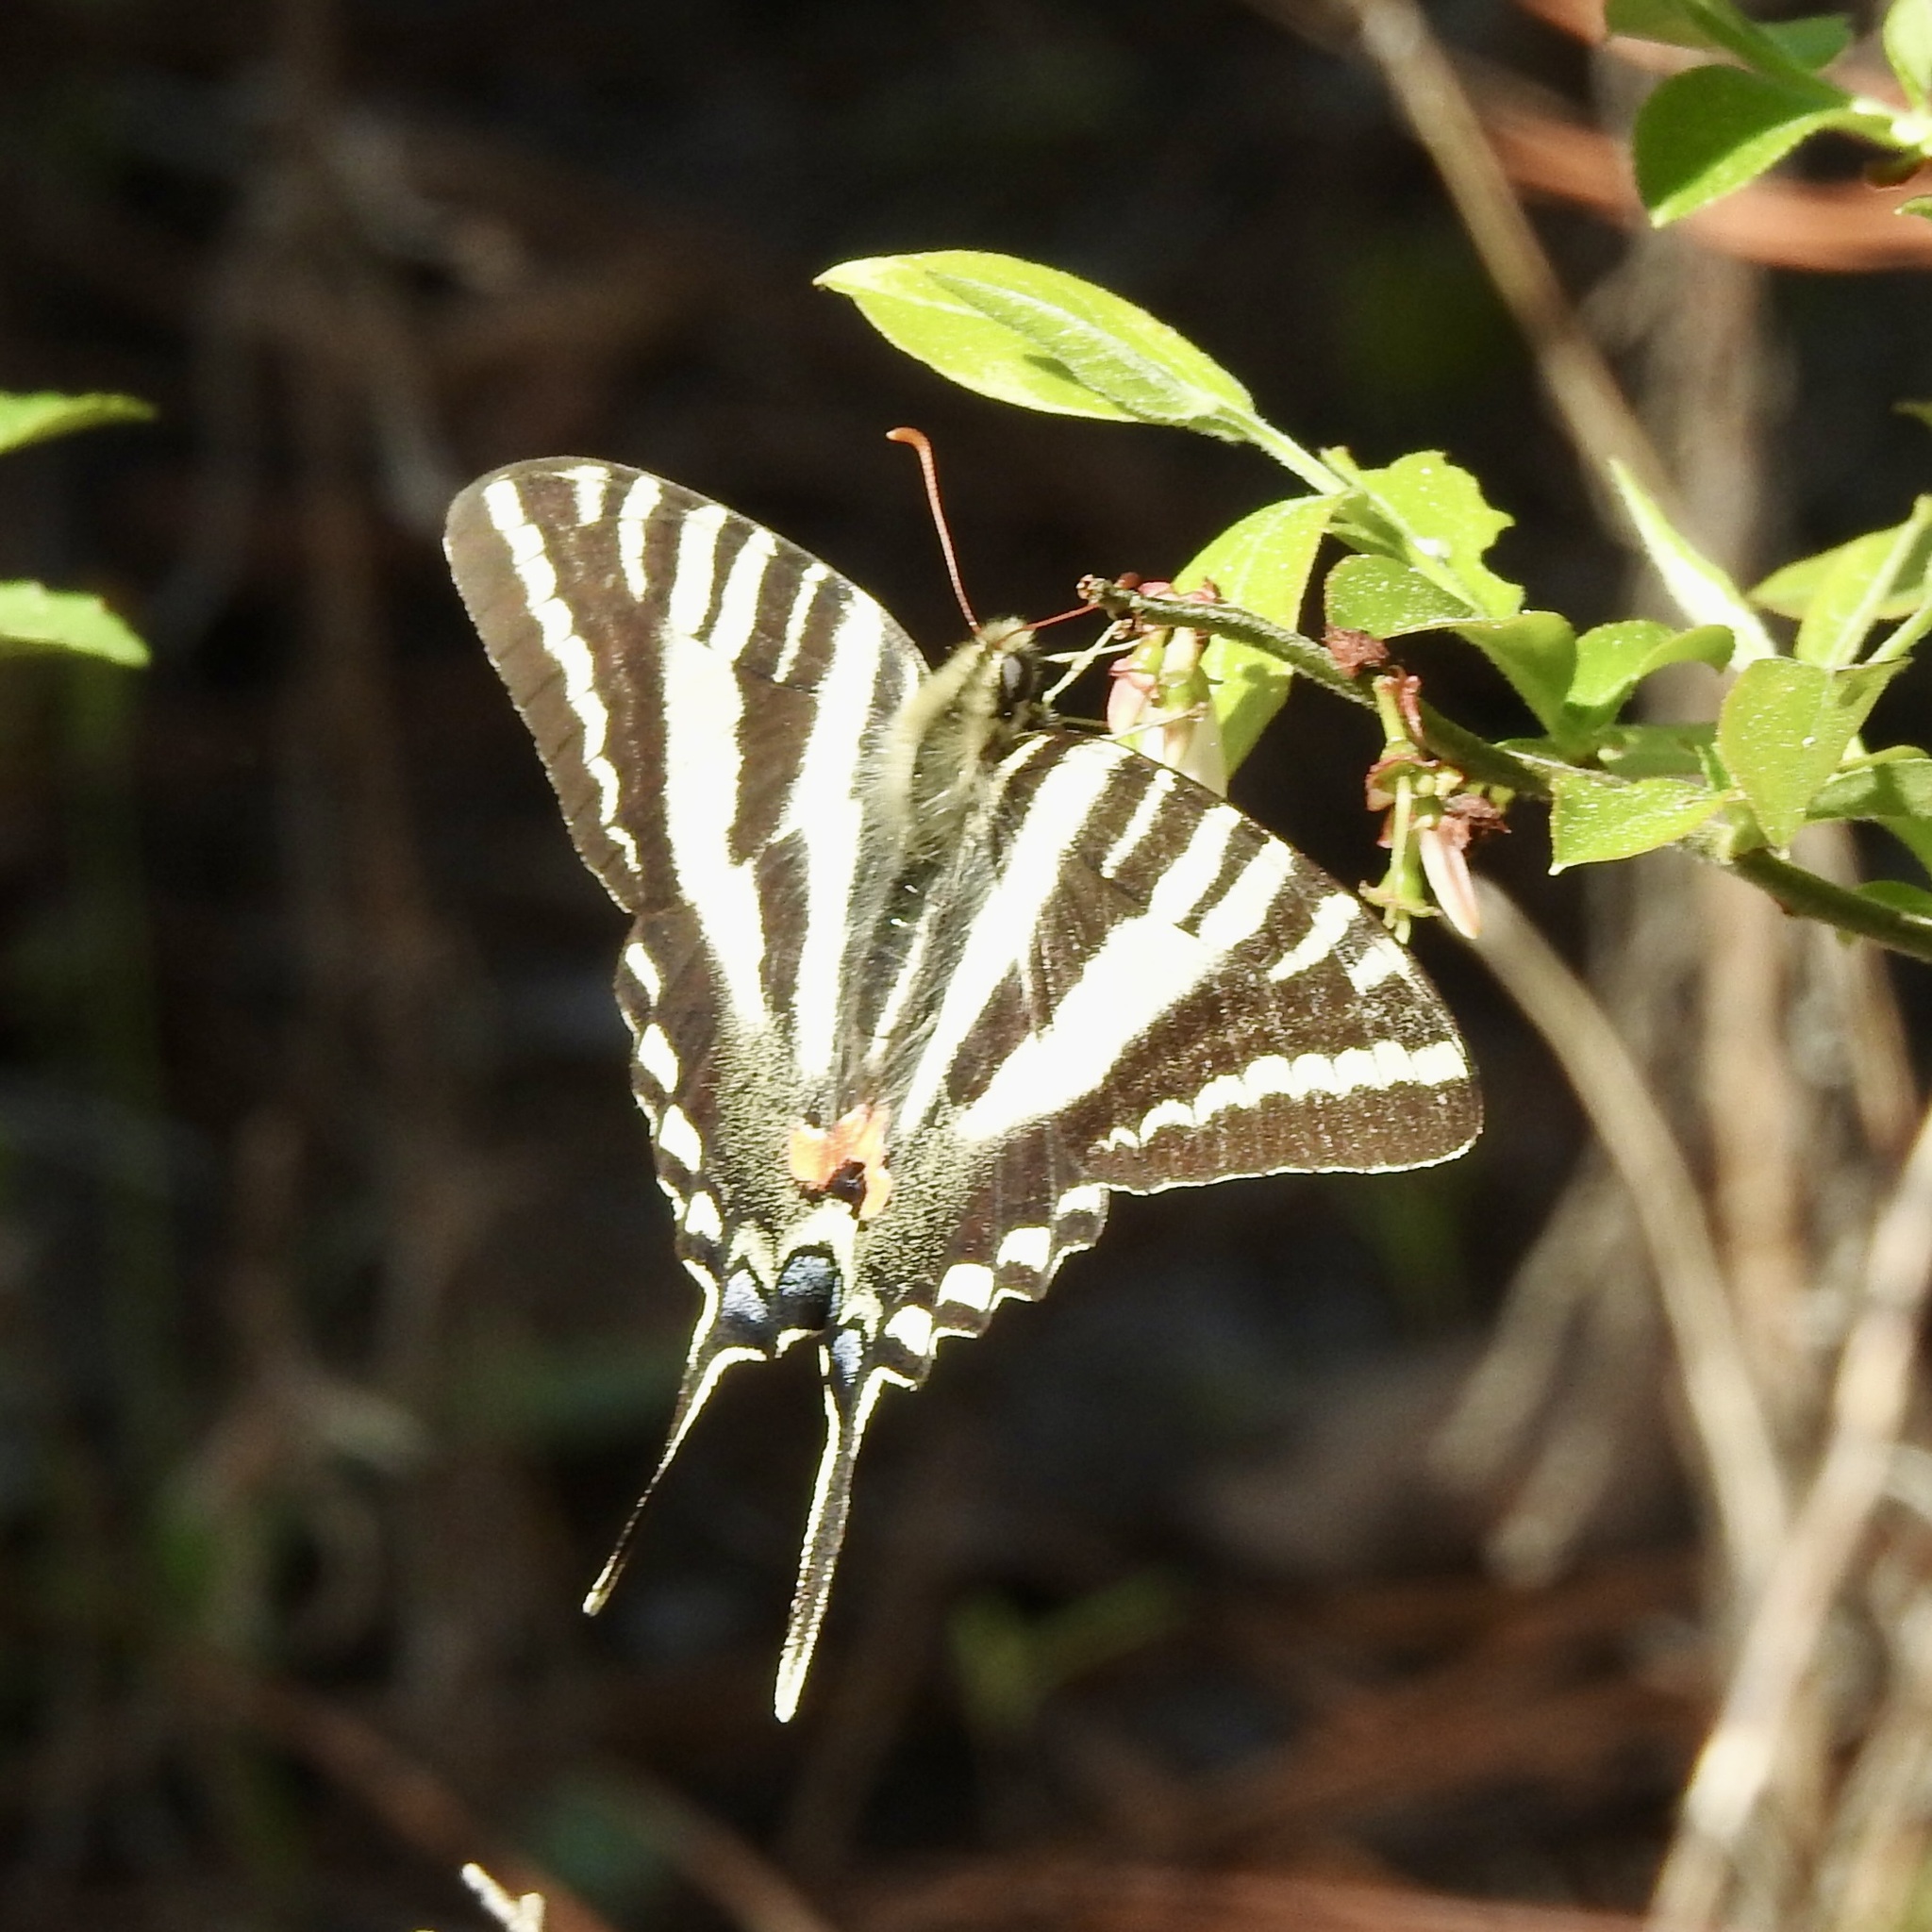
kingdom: Animalia
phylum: Arthropoda
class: Insecta
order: Lepidoptera
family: Papilionidae
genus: Protographium
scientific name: Protographium marcellus
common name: Zebra swallowtail
